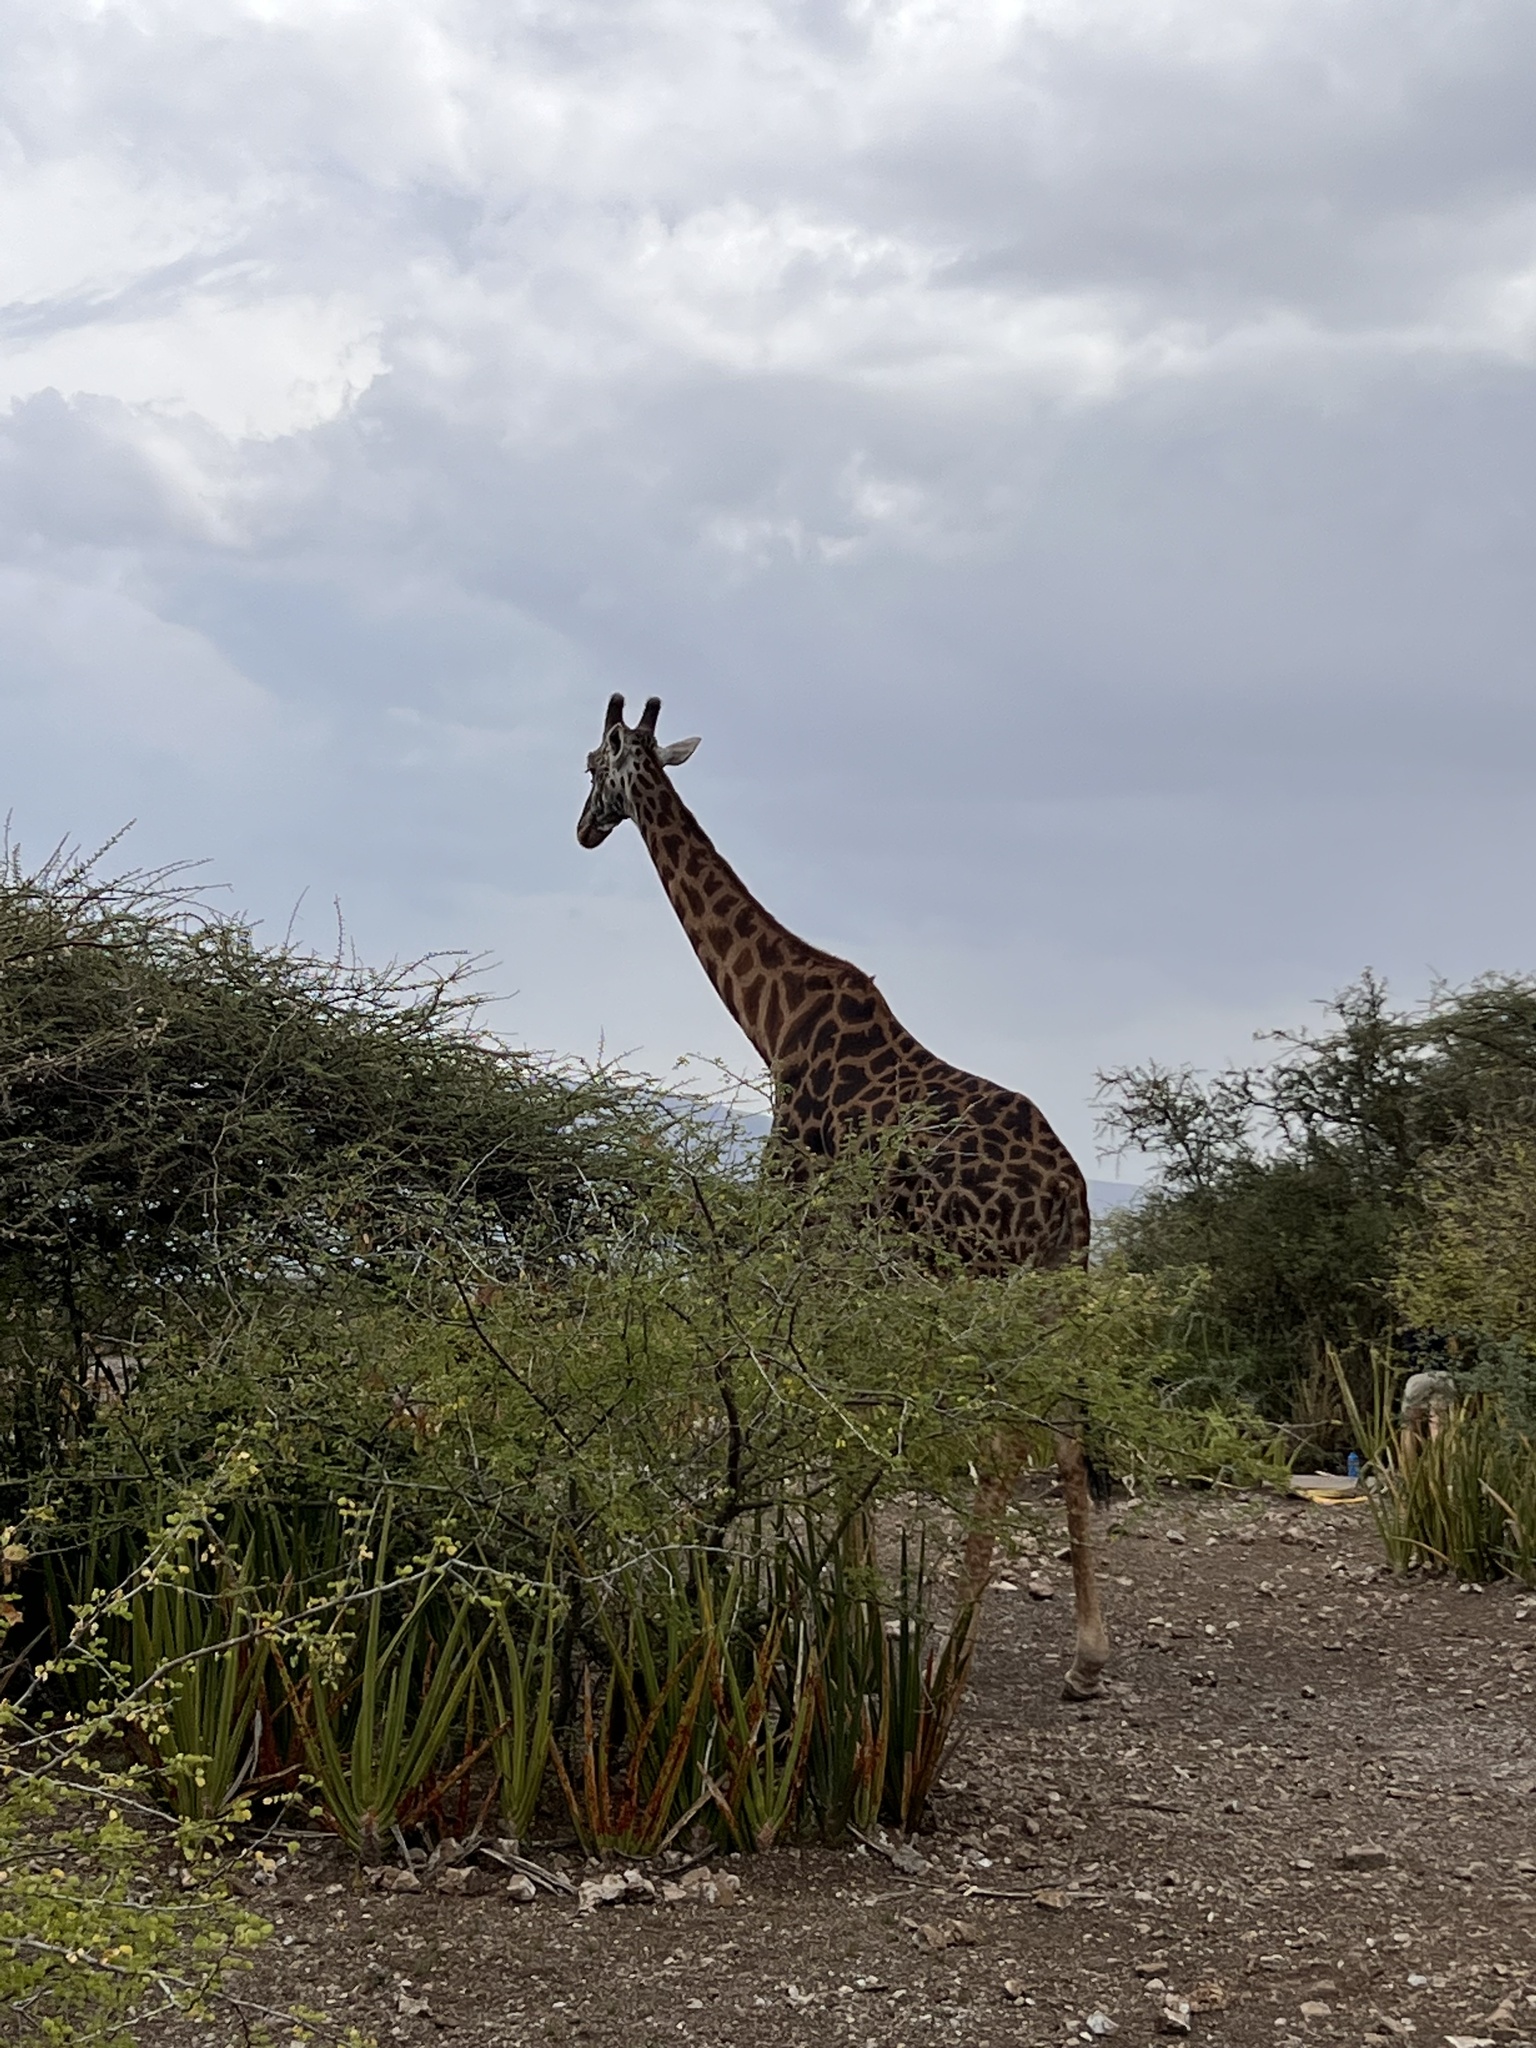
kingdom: Animalia
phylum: Chordata
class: Mammalia
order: Artiodactyla
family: Giraffidae
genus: Giraffa
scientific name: Giraffa tippelskirchi
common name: Masai giraffe
